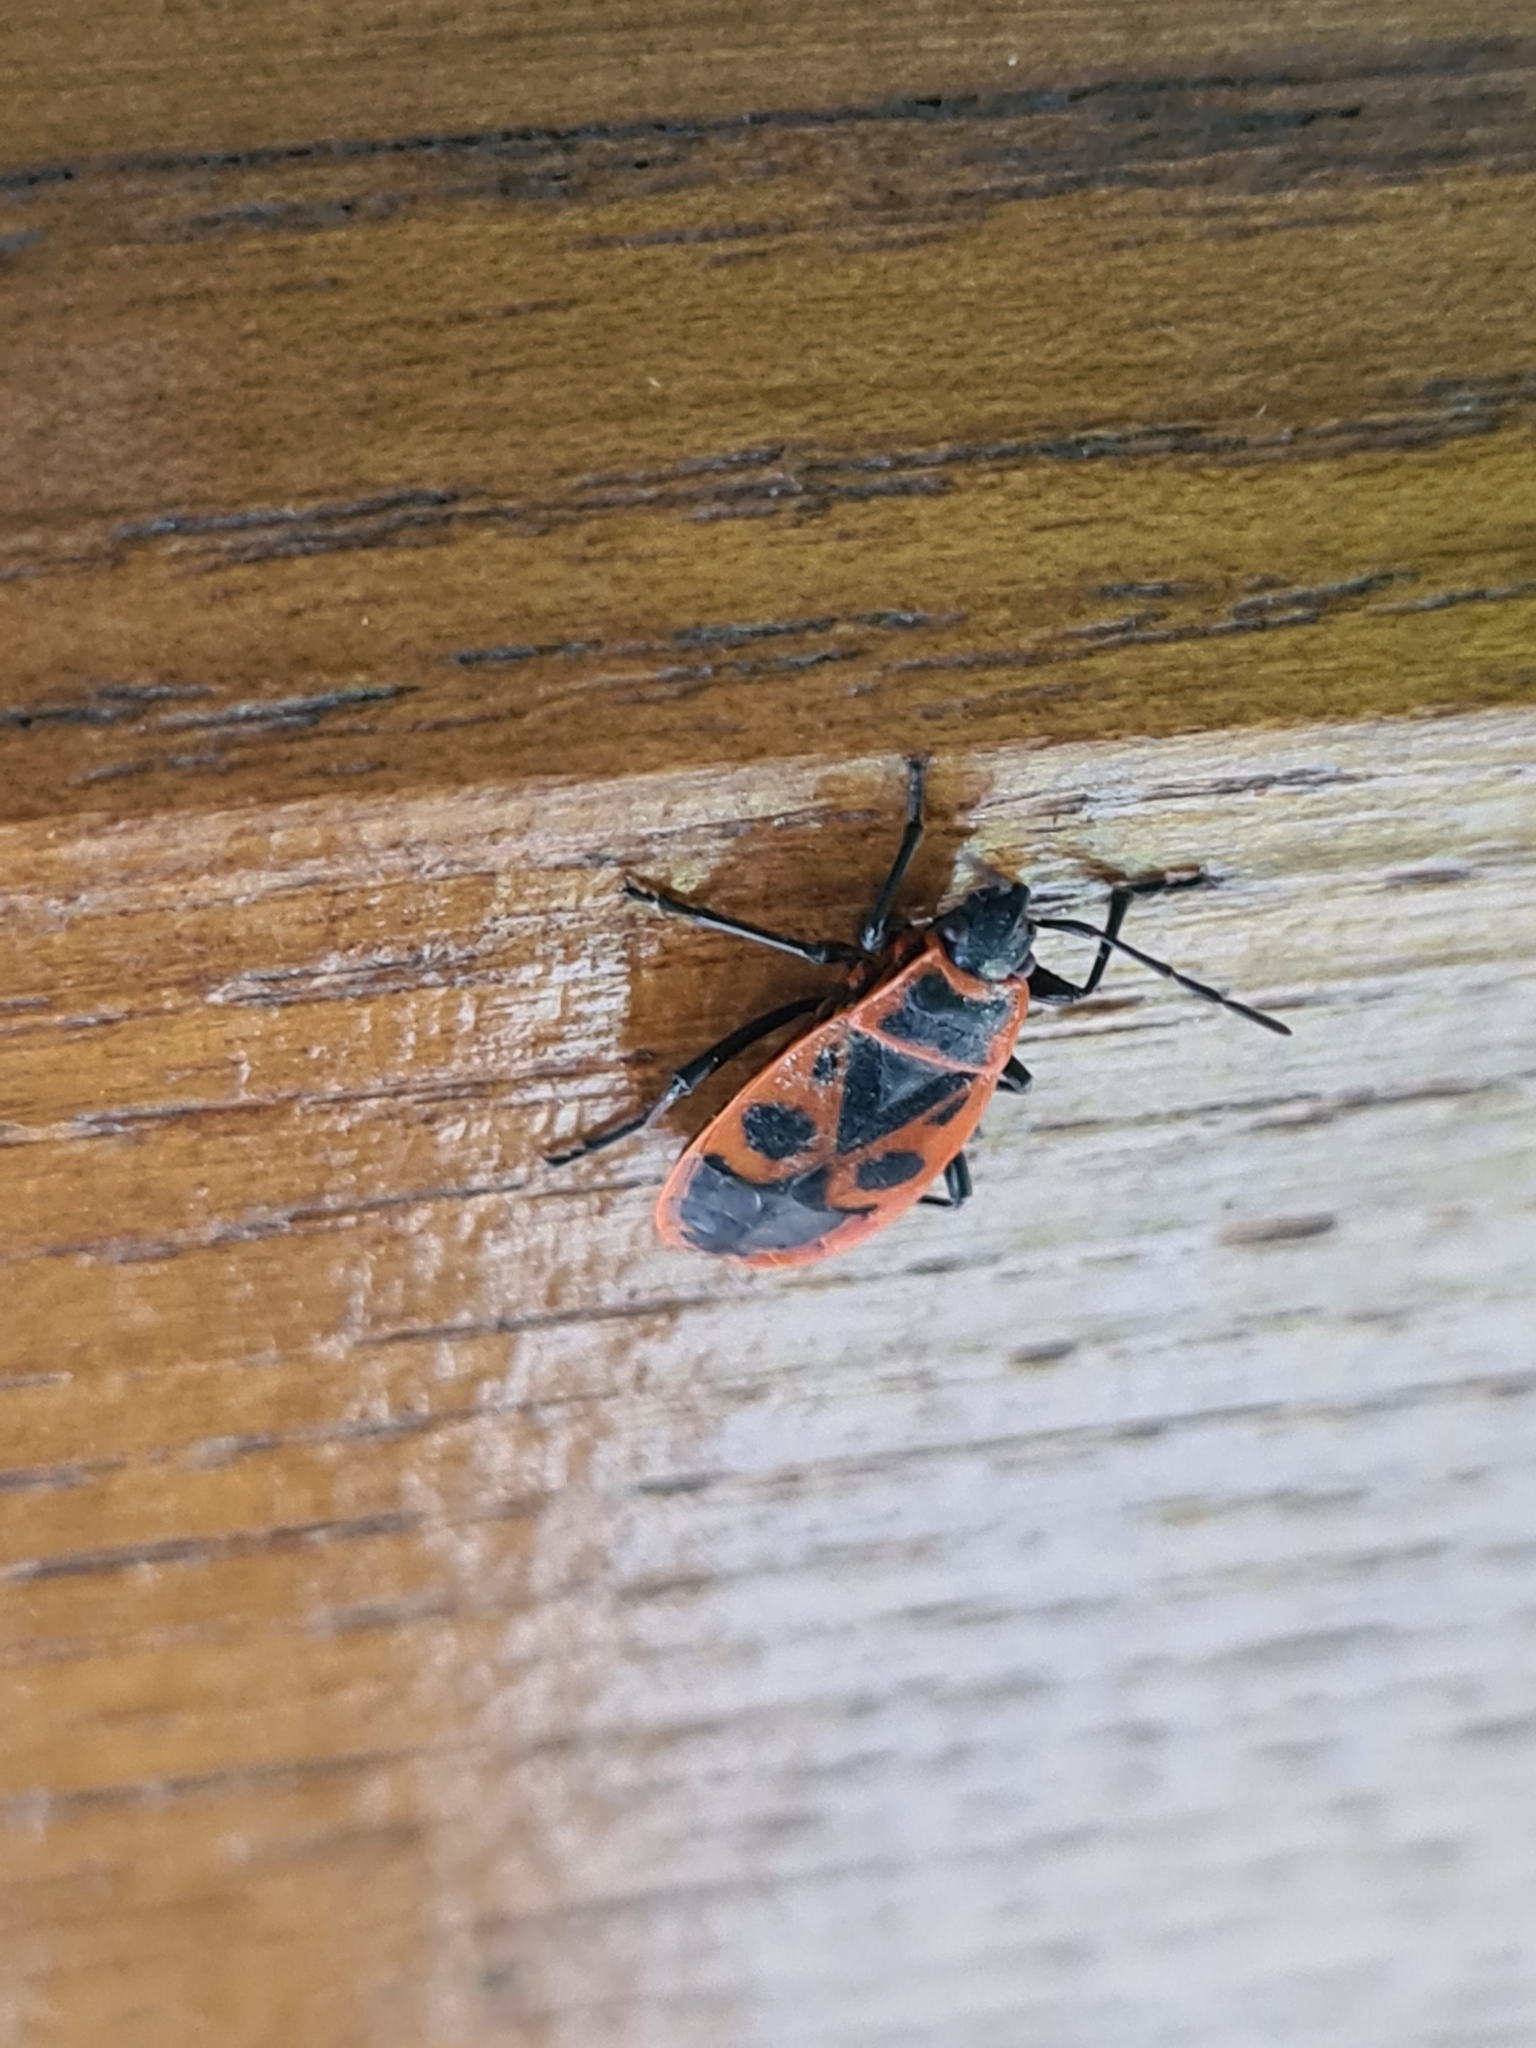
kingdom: Animalia
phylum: Arthropoda
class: Insecta
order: Hemiptera
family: Pyrrhocoridae
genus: Pyrrhocoris
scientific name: Pyrrhocoris apterus
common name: Firebug
